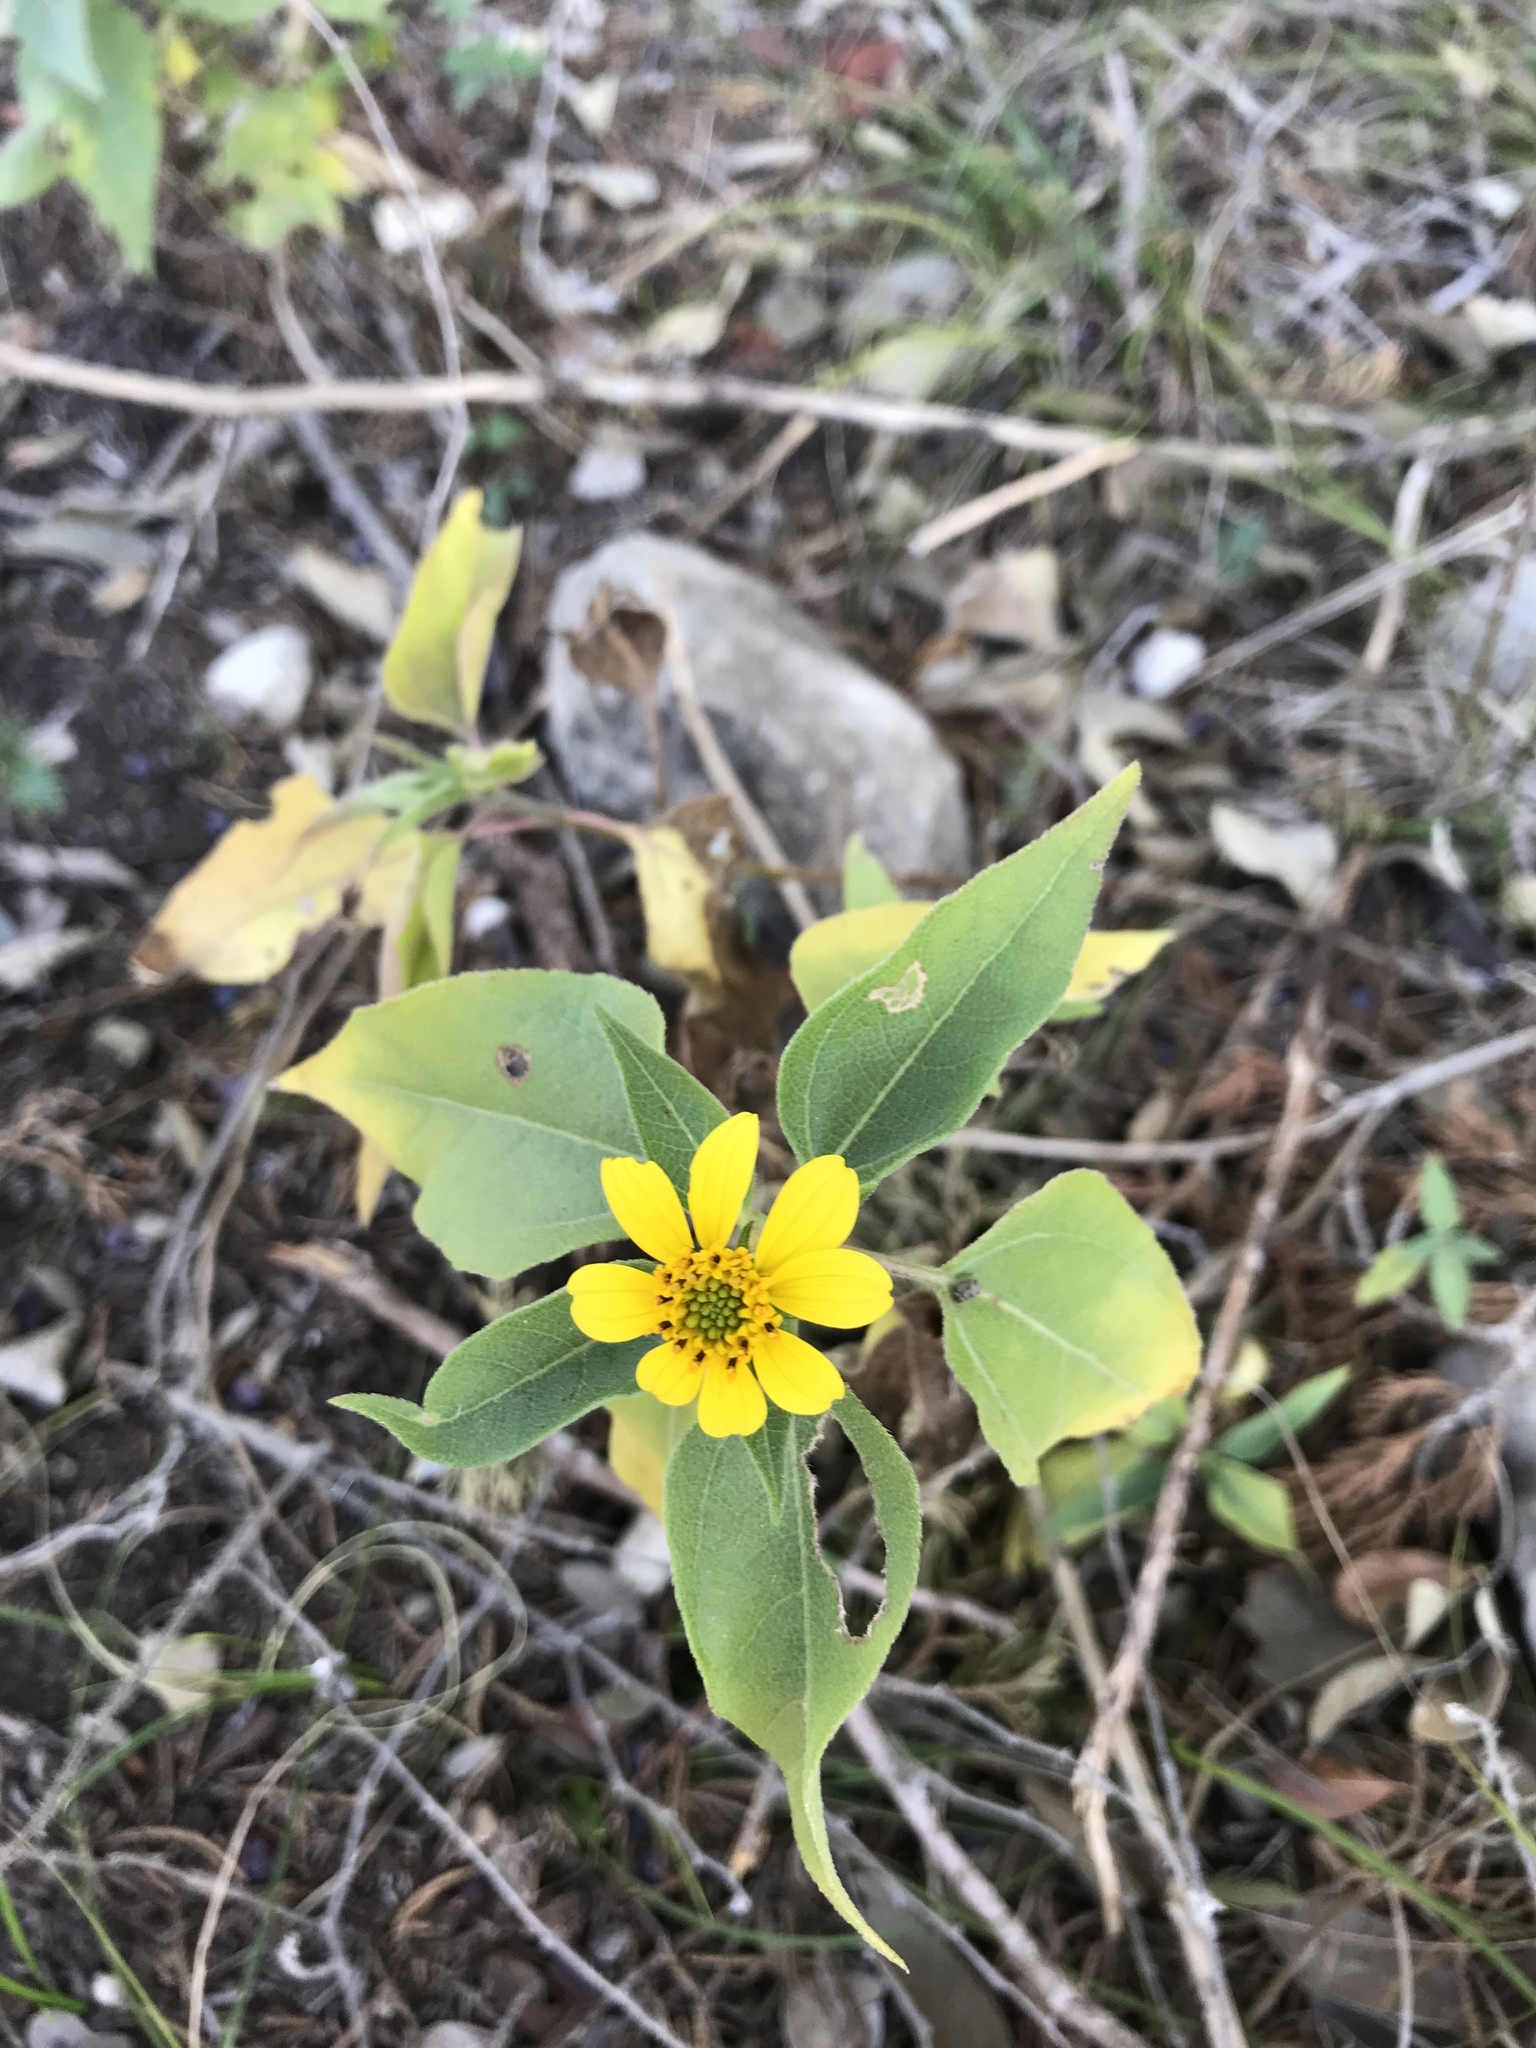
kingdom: Plantae
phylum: Tracheophyta
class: Magnoliopsida
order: Asterales
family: Asteraceae
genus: Viguiera
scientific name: Viguiera dentata
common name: Toothleaf
